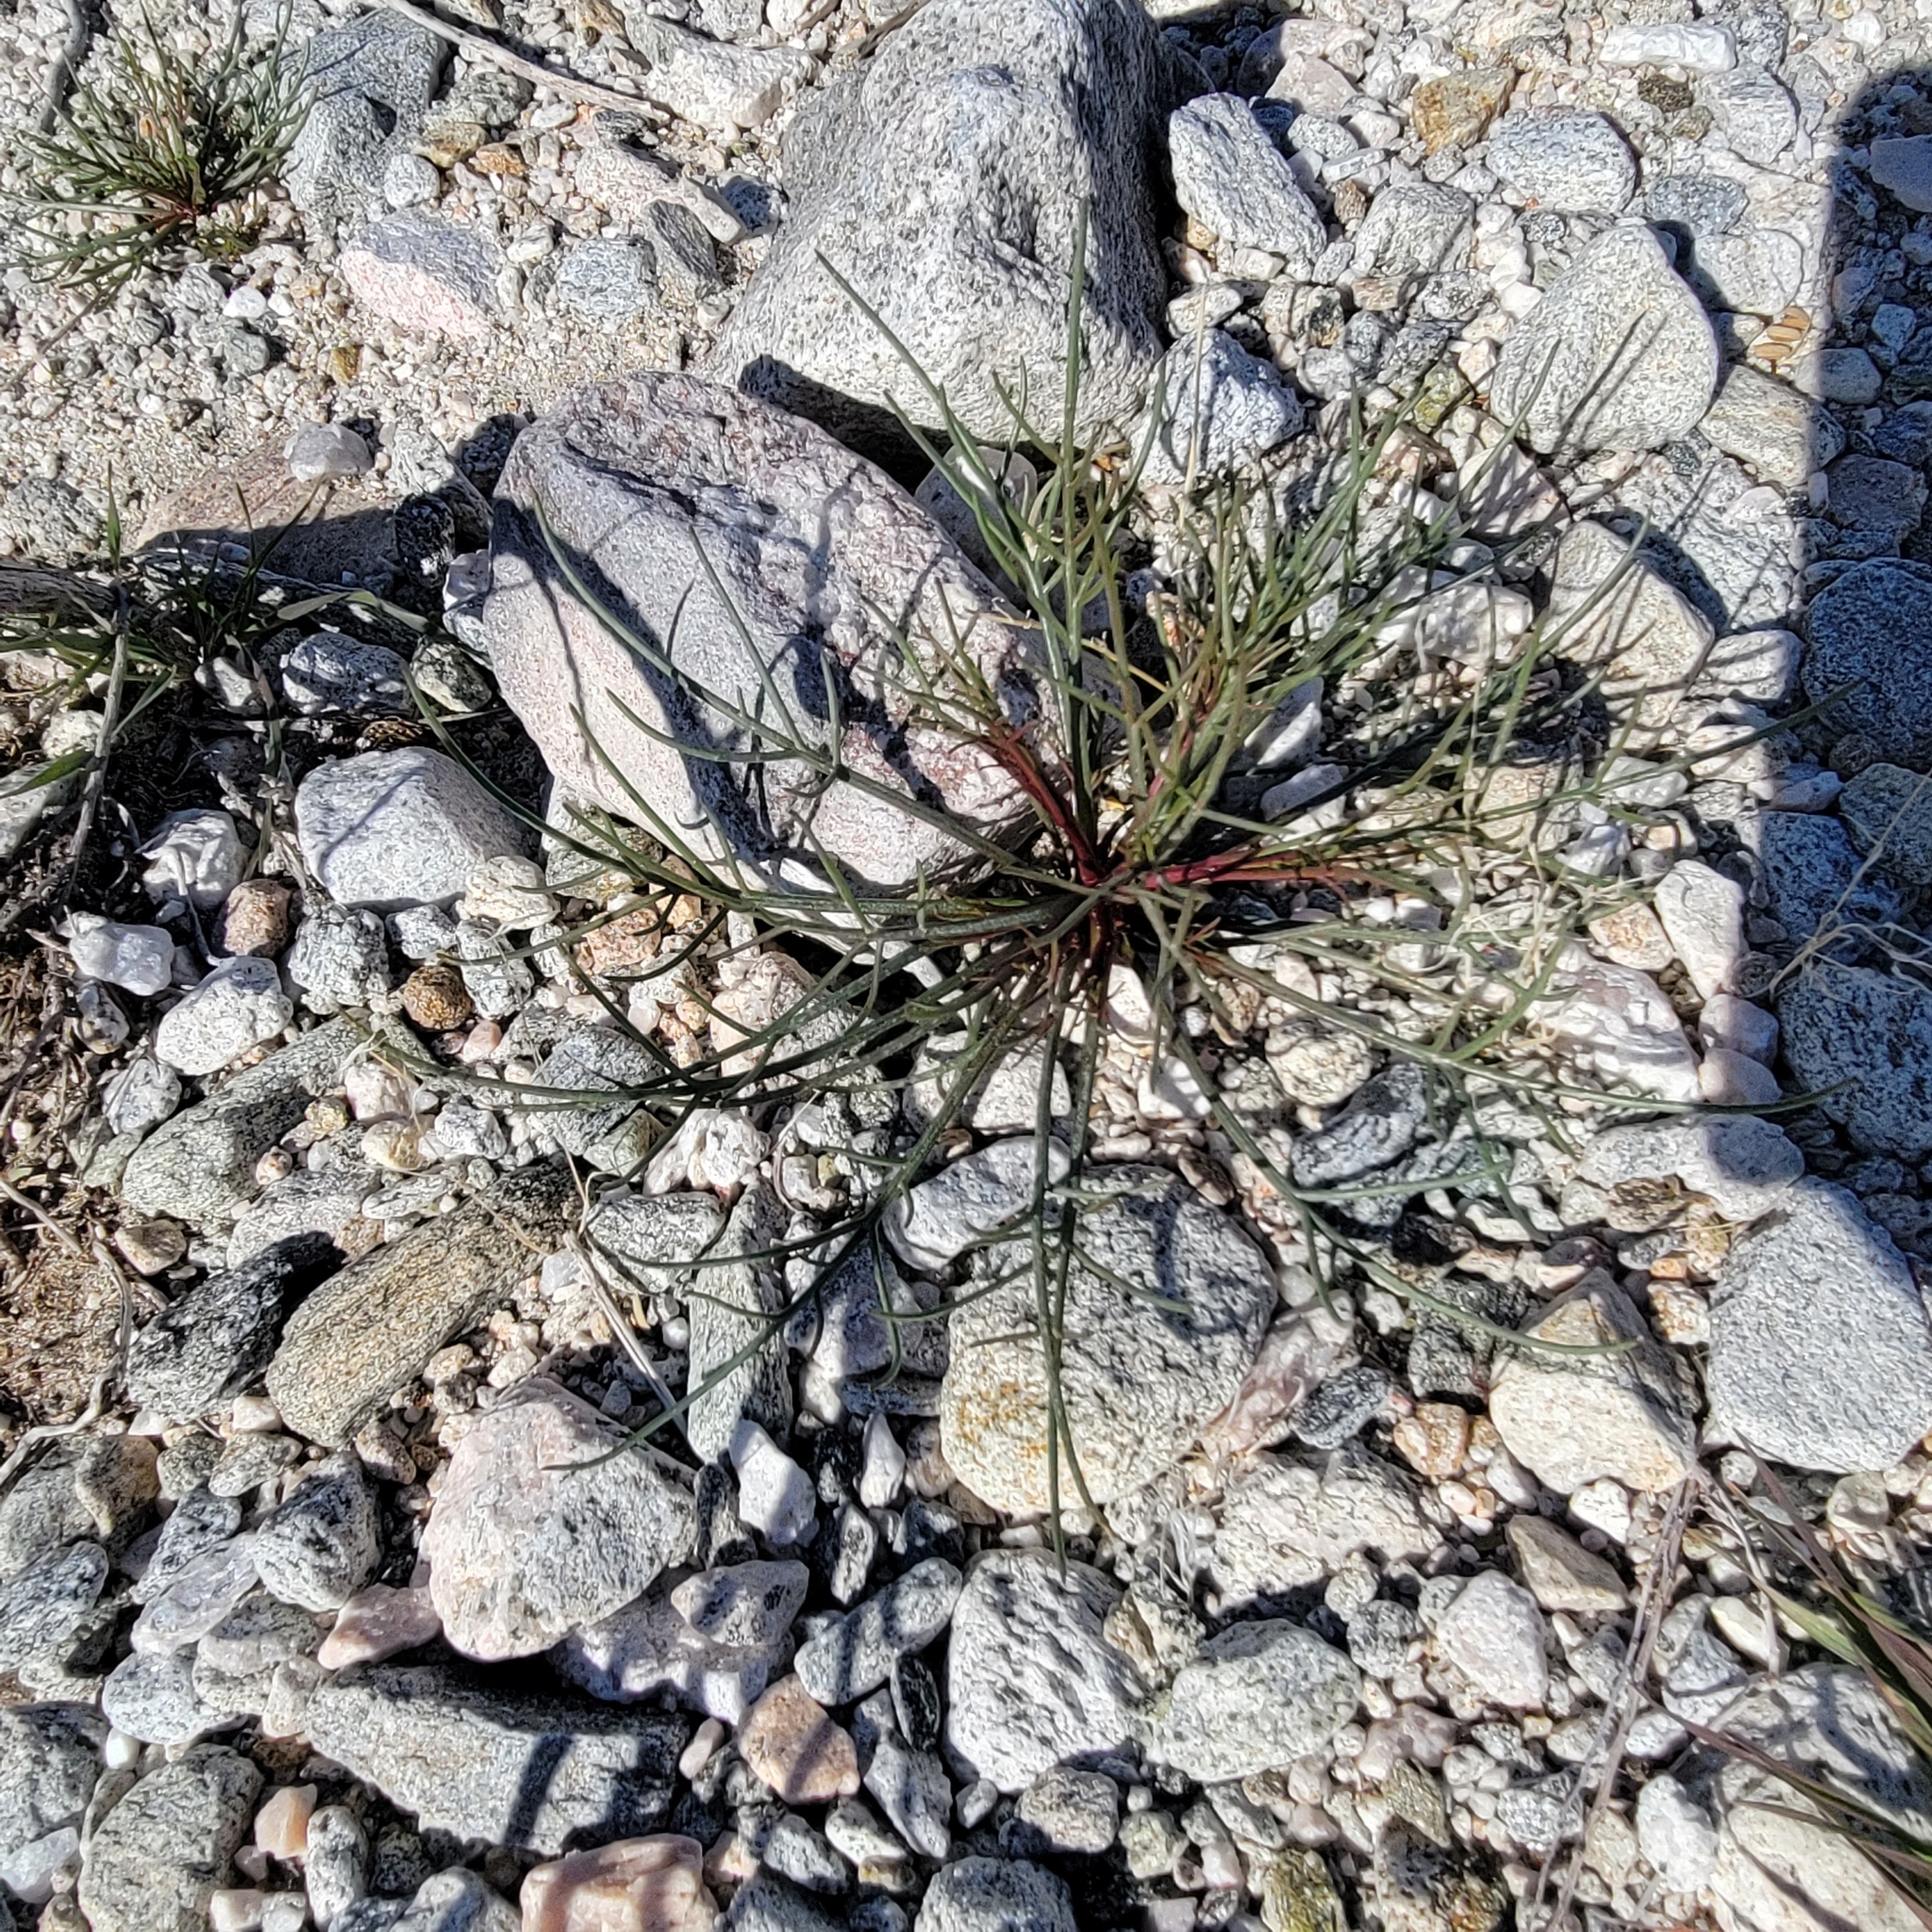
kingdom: Plantae
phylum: Tracheophyta
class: Magnoliopsida
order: Asterales
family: Asteraceae
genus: Chaenactis
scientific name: Chaenactis fremontii
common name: Fremont pincushion
